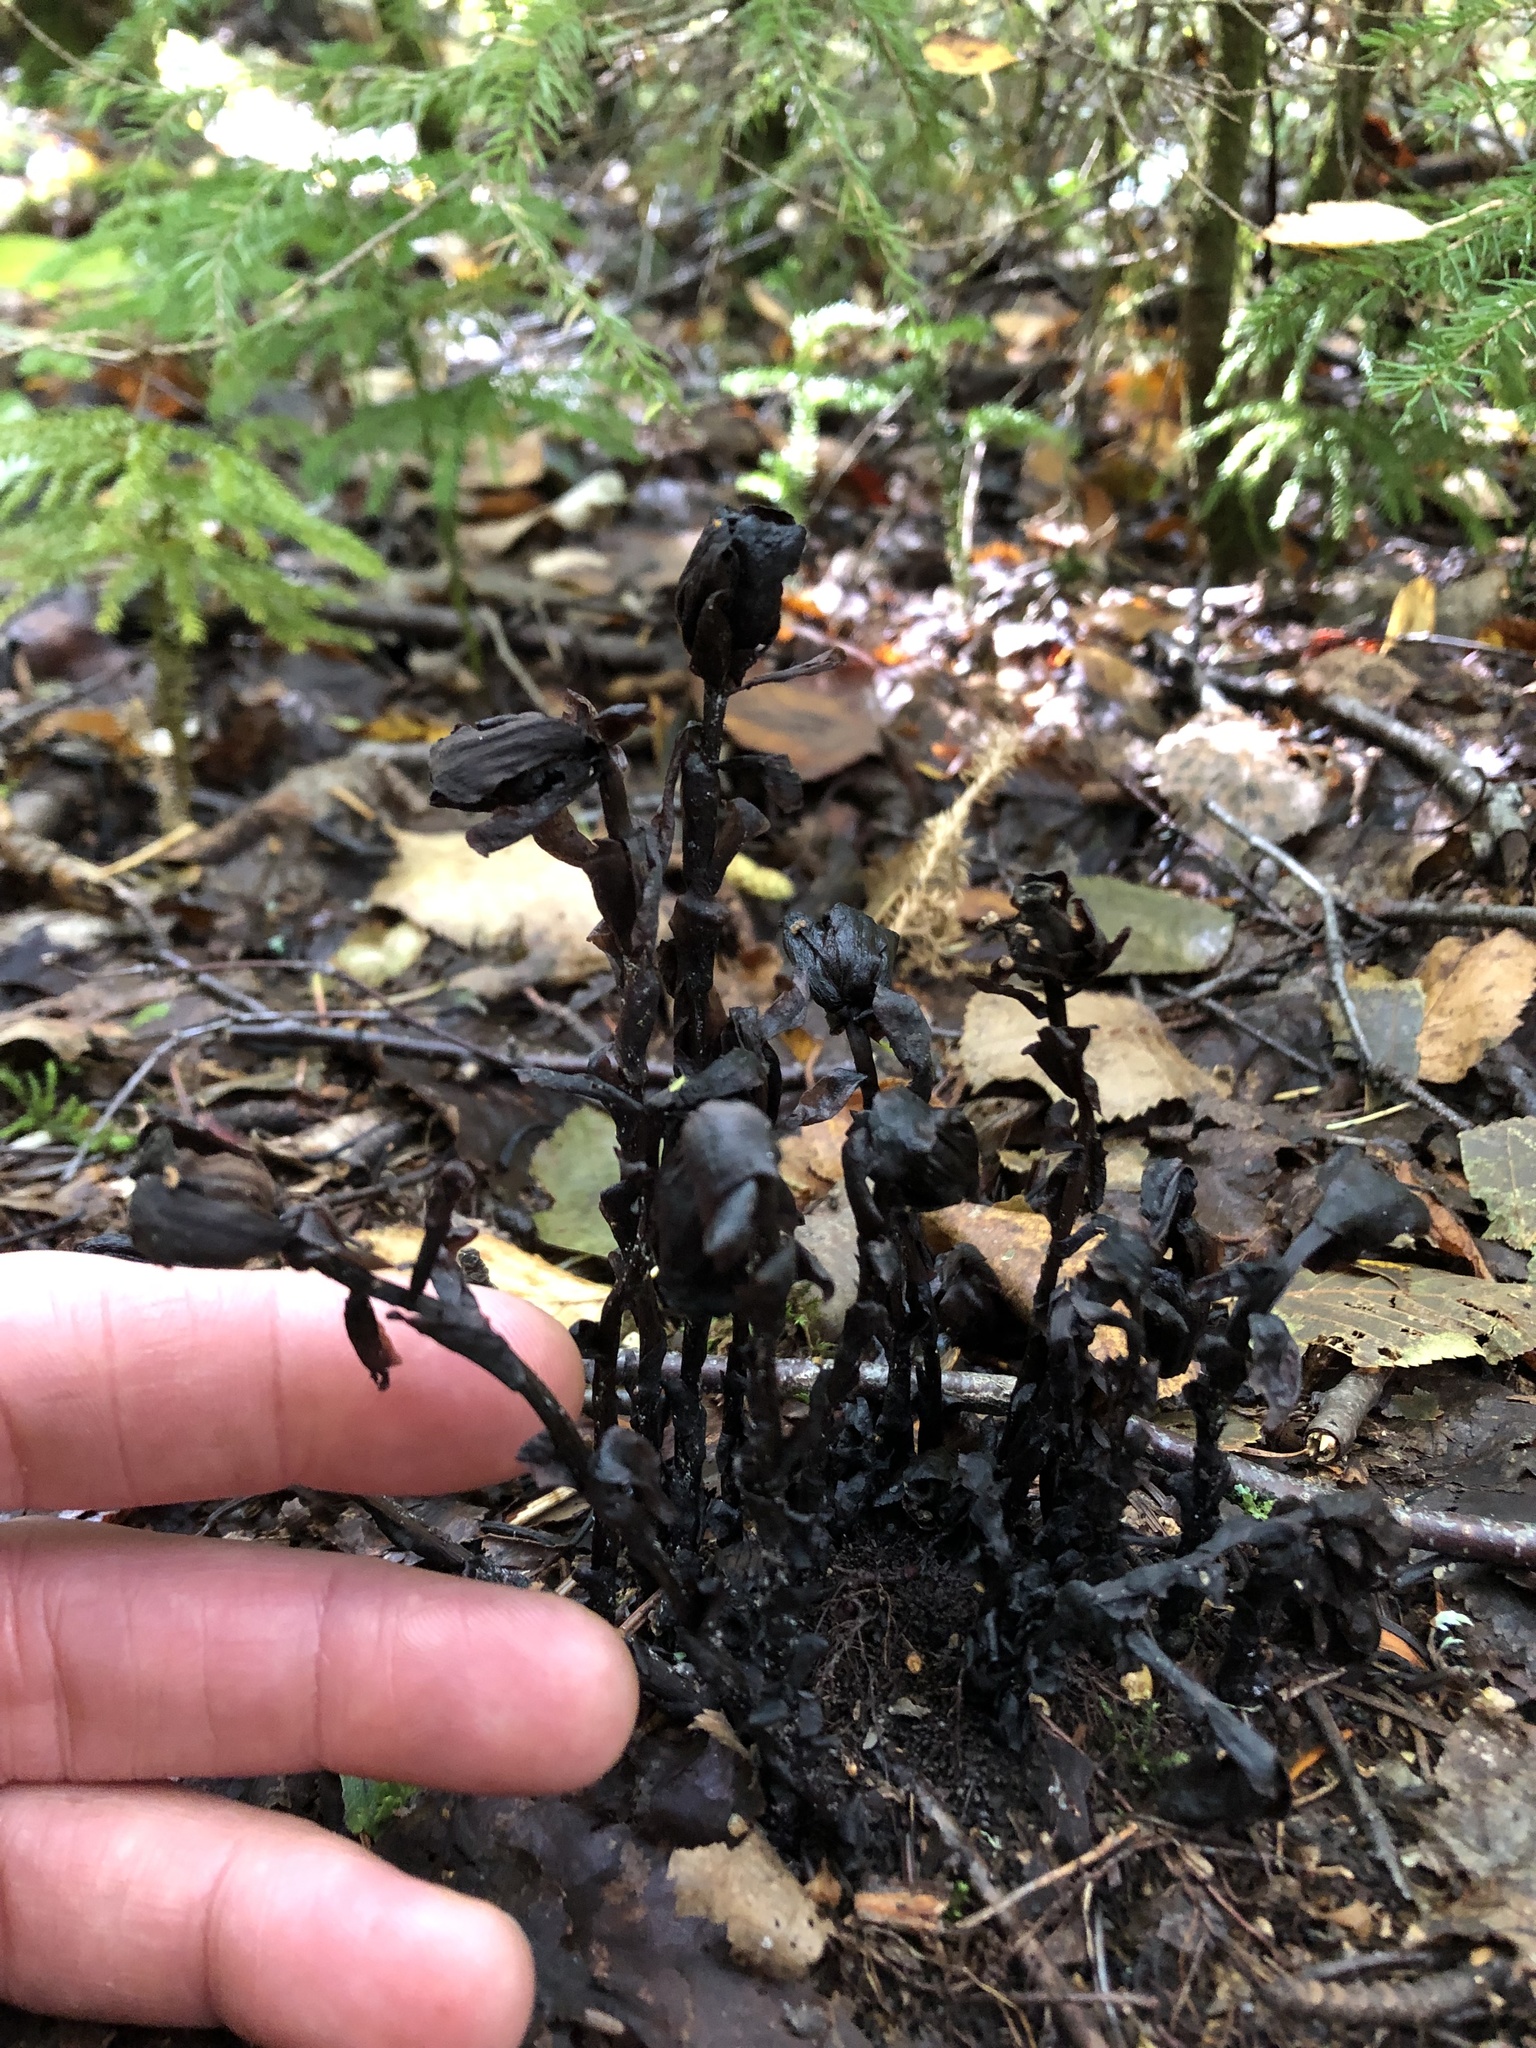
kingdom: Plantae
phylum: Tracheophyta
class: Magnoliopsida
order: Ericales
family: Ericaceae
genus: Monotropa
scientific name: Monotropa uniflora
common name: Convulsion root
